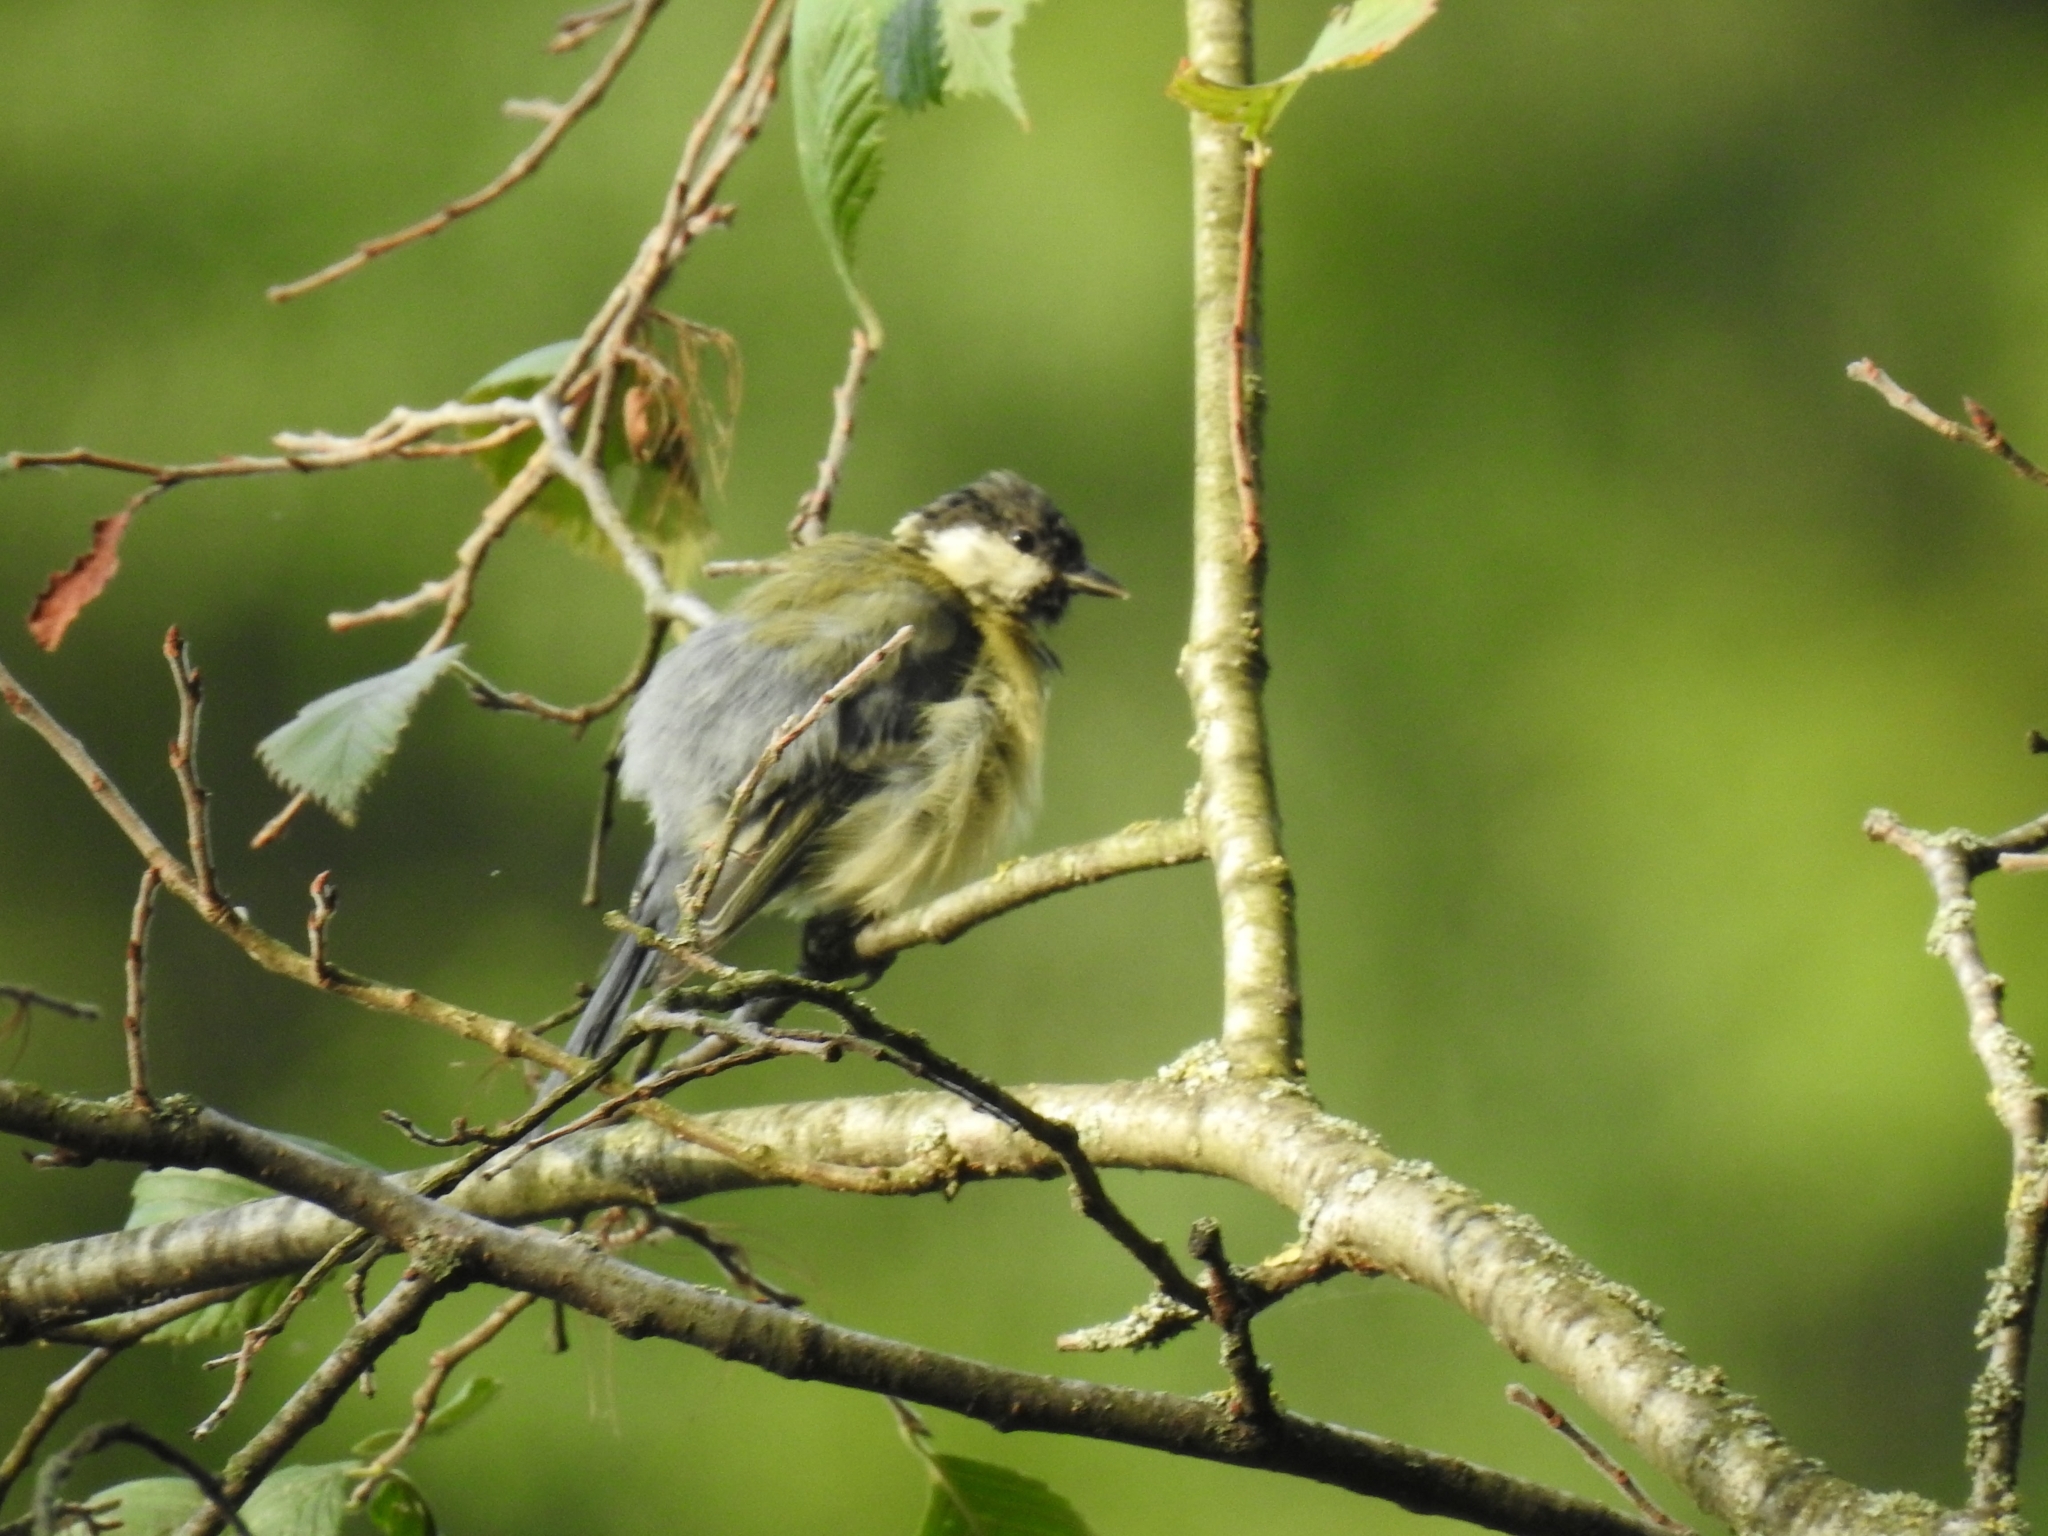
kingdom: Animalia
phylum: Chordata
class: Aves
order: Passeriformes
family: Paridae
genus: Parus
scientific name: Parus major
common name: Great tit
